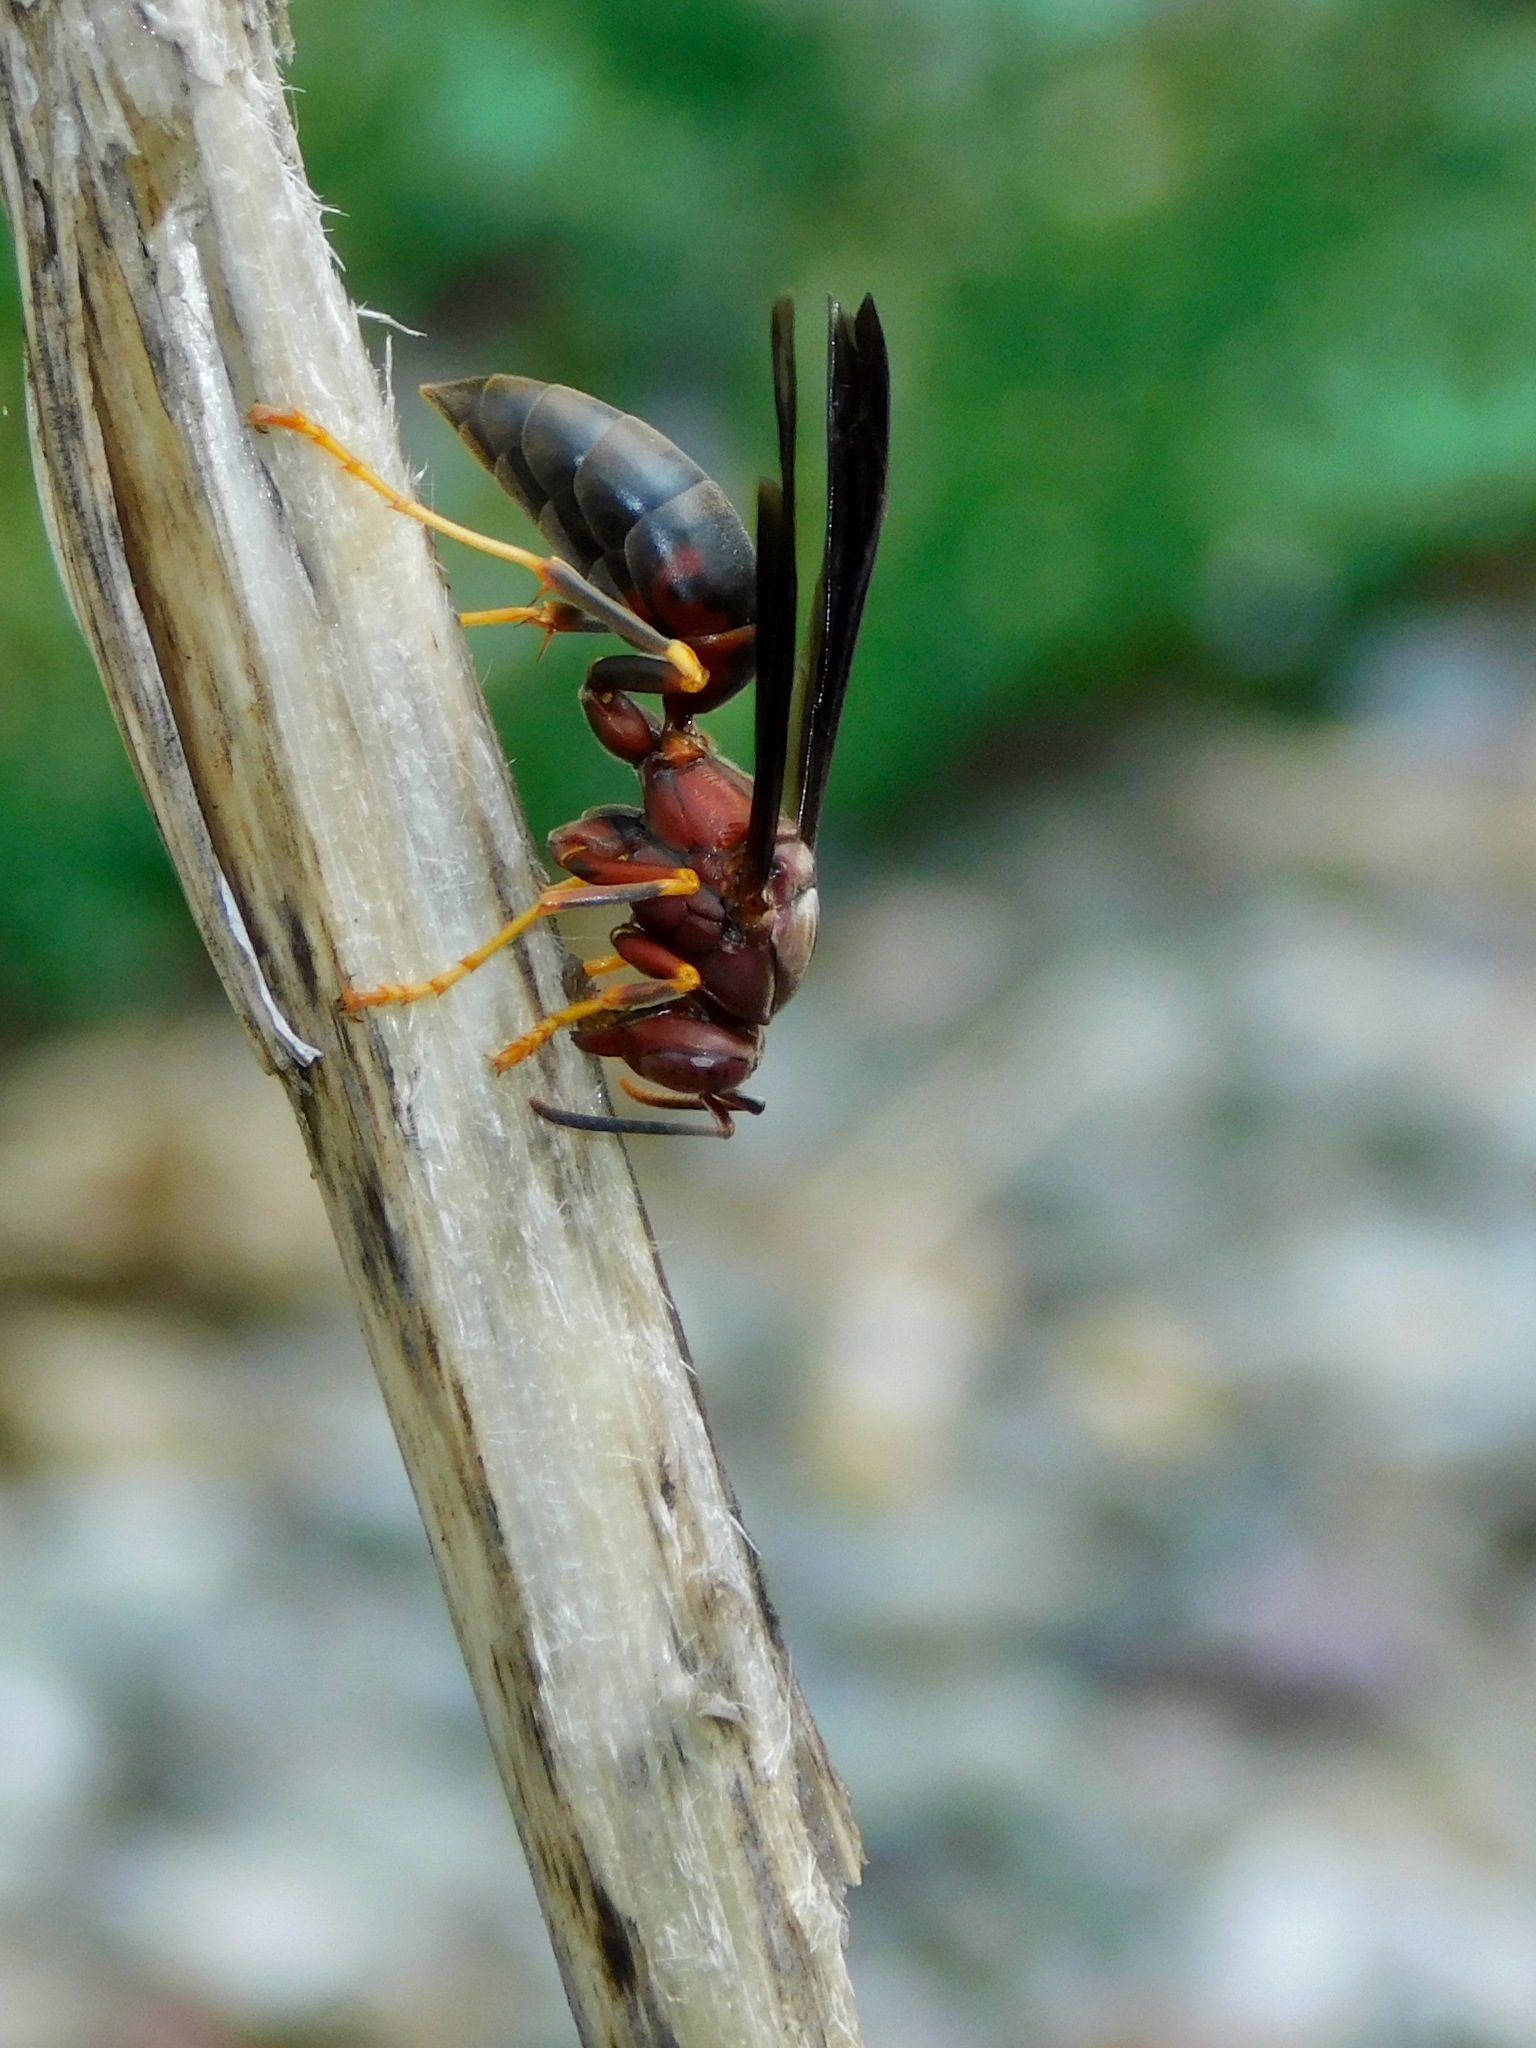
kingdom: Animalia
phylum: Arthropoda
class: Insecta
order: Hymenoptera
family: Eumenidae
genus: Polistes
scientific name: Polistes metricus
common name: Metric paper wasp
